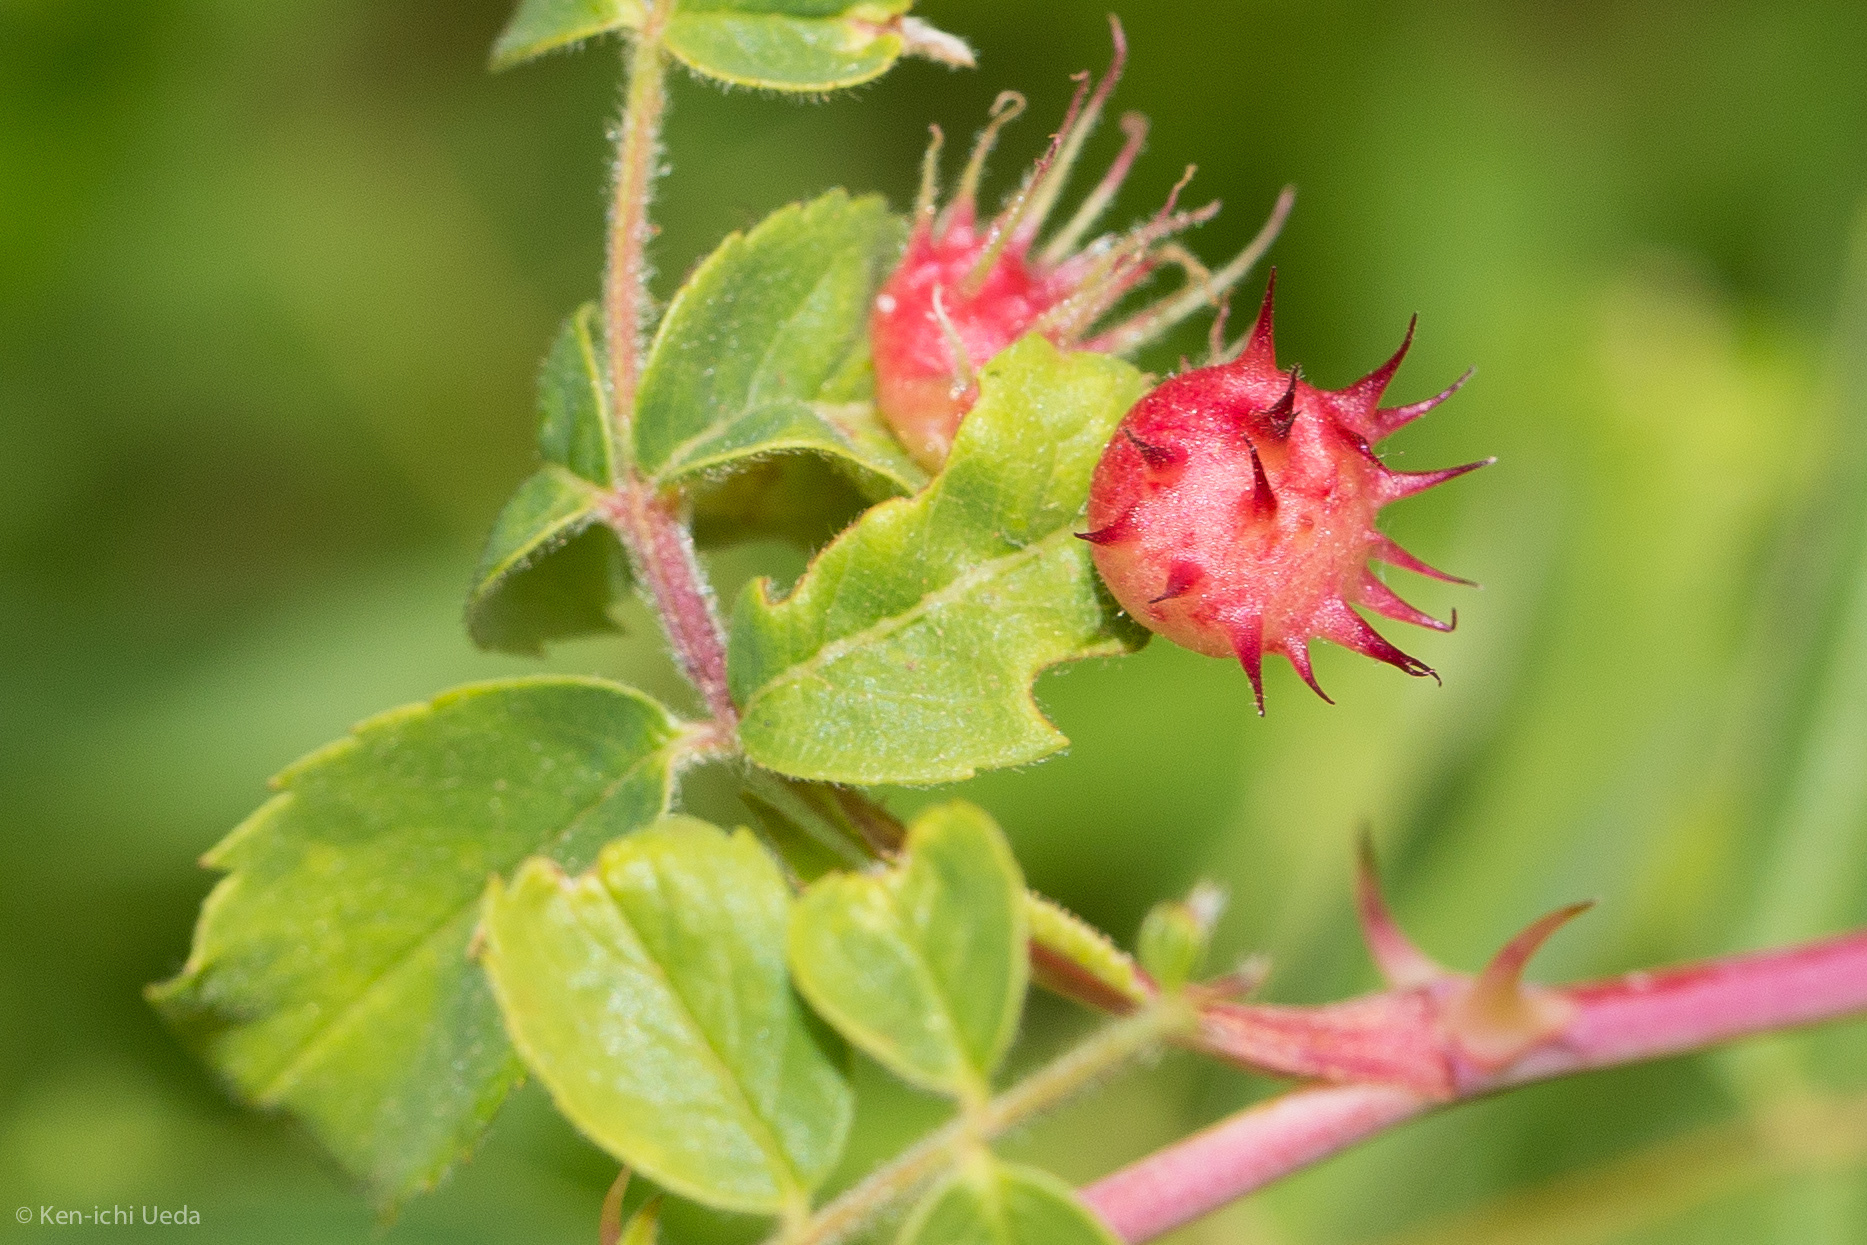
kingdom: Animalia
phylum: Arthropoda
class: Insecta
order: Hymenoptera
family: Cynipidae
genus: Diplolepis
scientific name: Diplolepis polita
